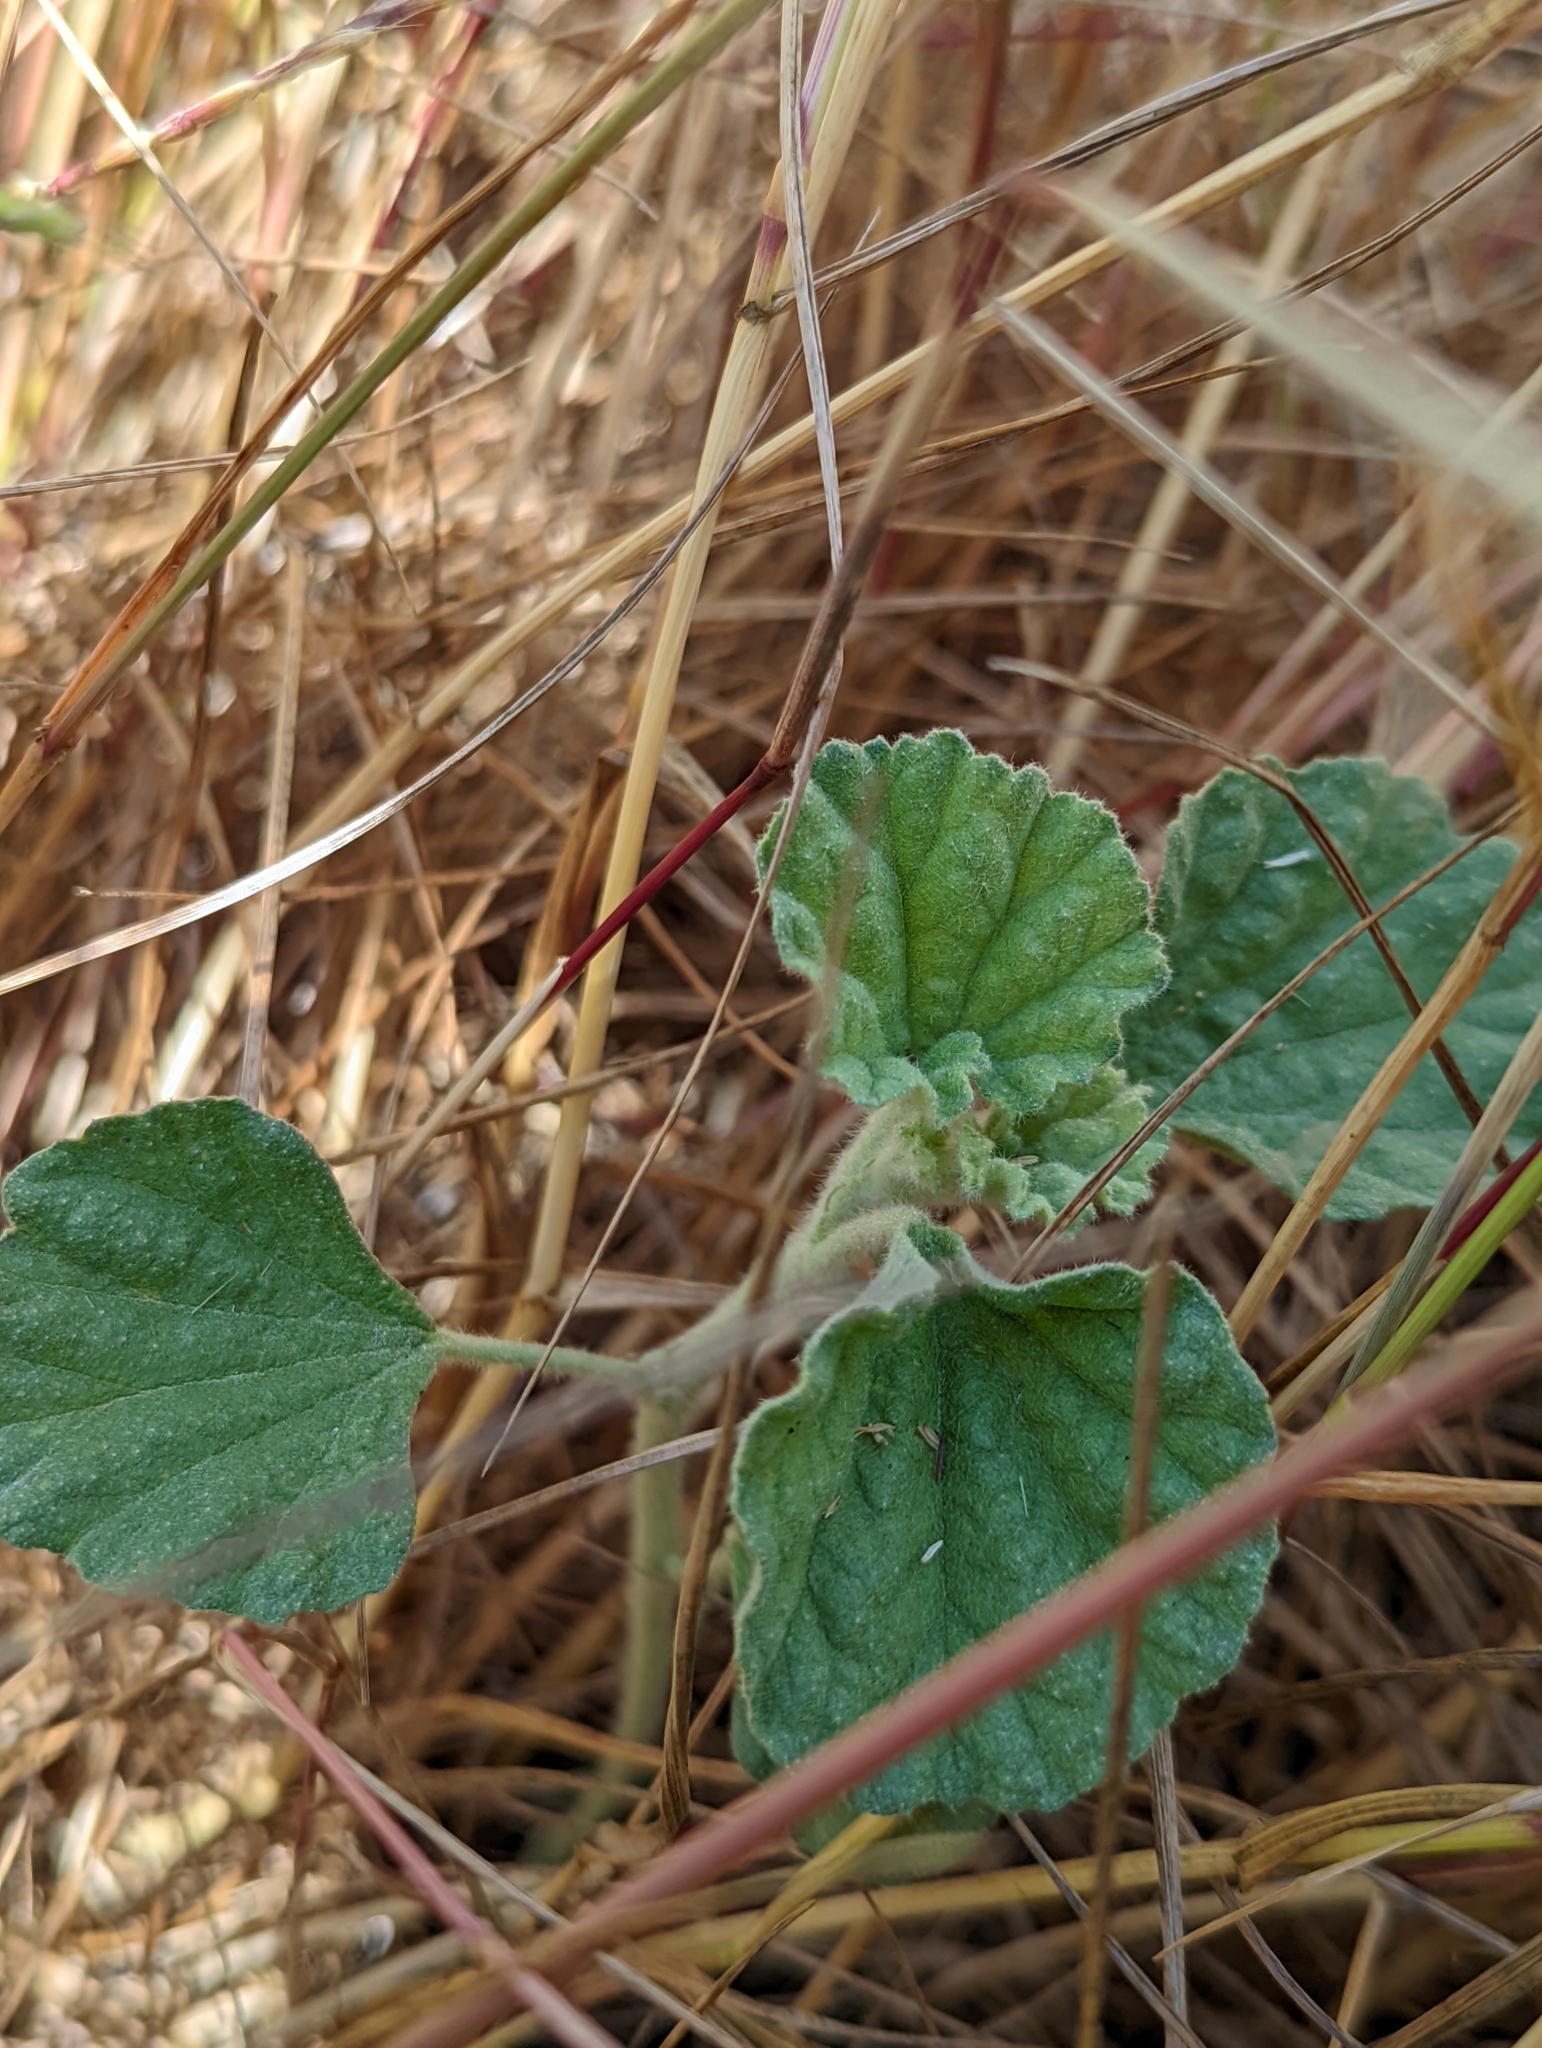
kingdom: Plantae
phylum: Tracheophyta
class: Magnoliopsida
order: Malvales
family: Malvaceae
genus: Malvella
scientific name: Malvella leprosa
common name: Alkali-mallow
